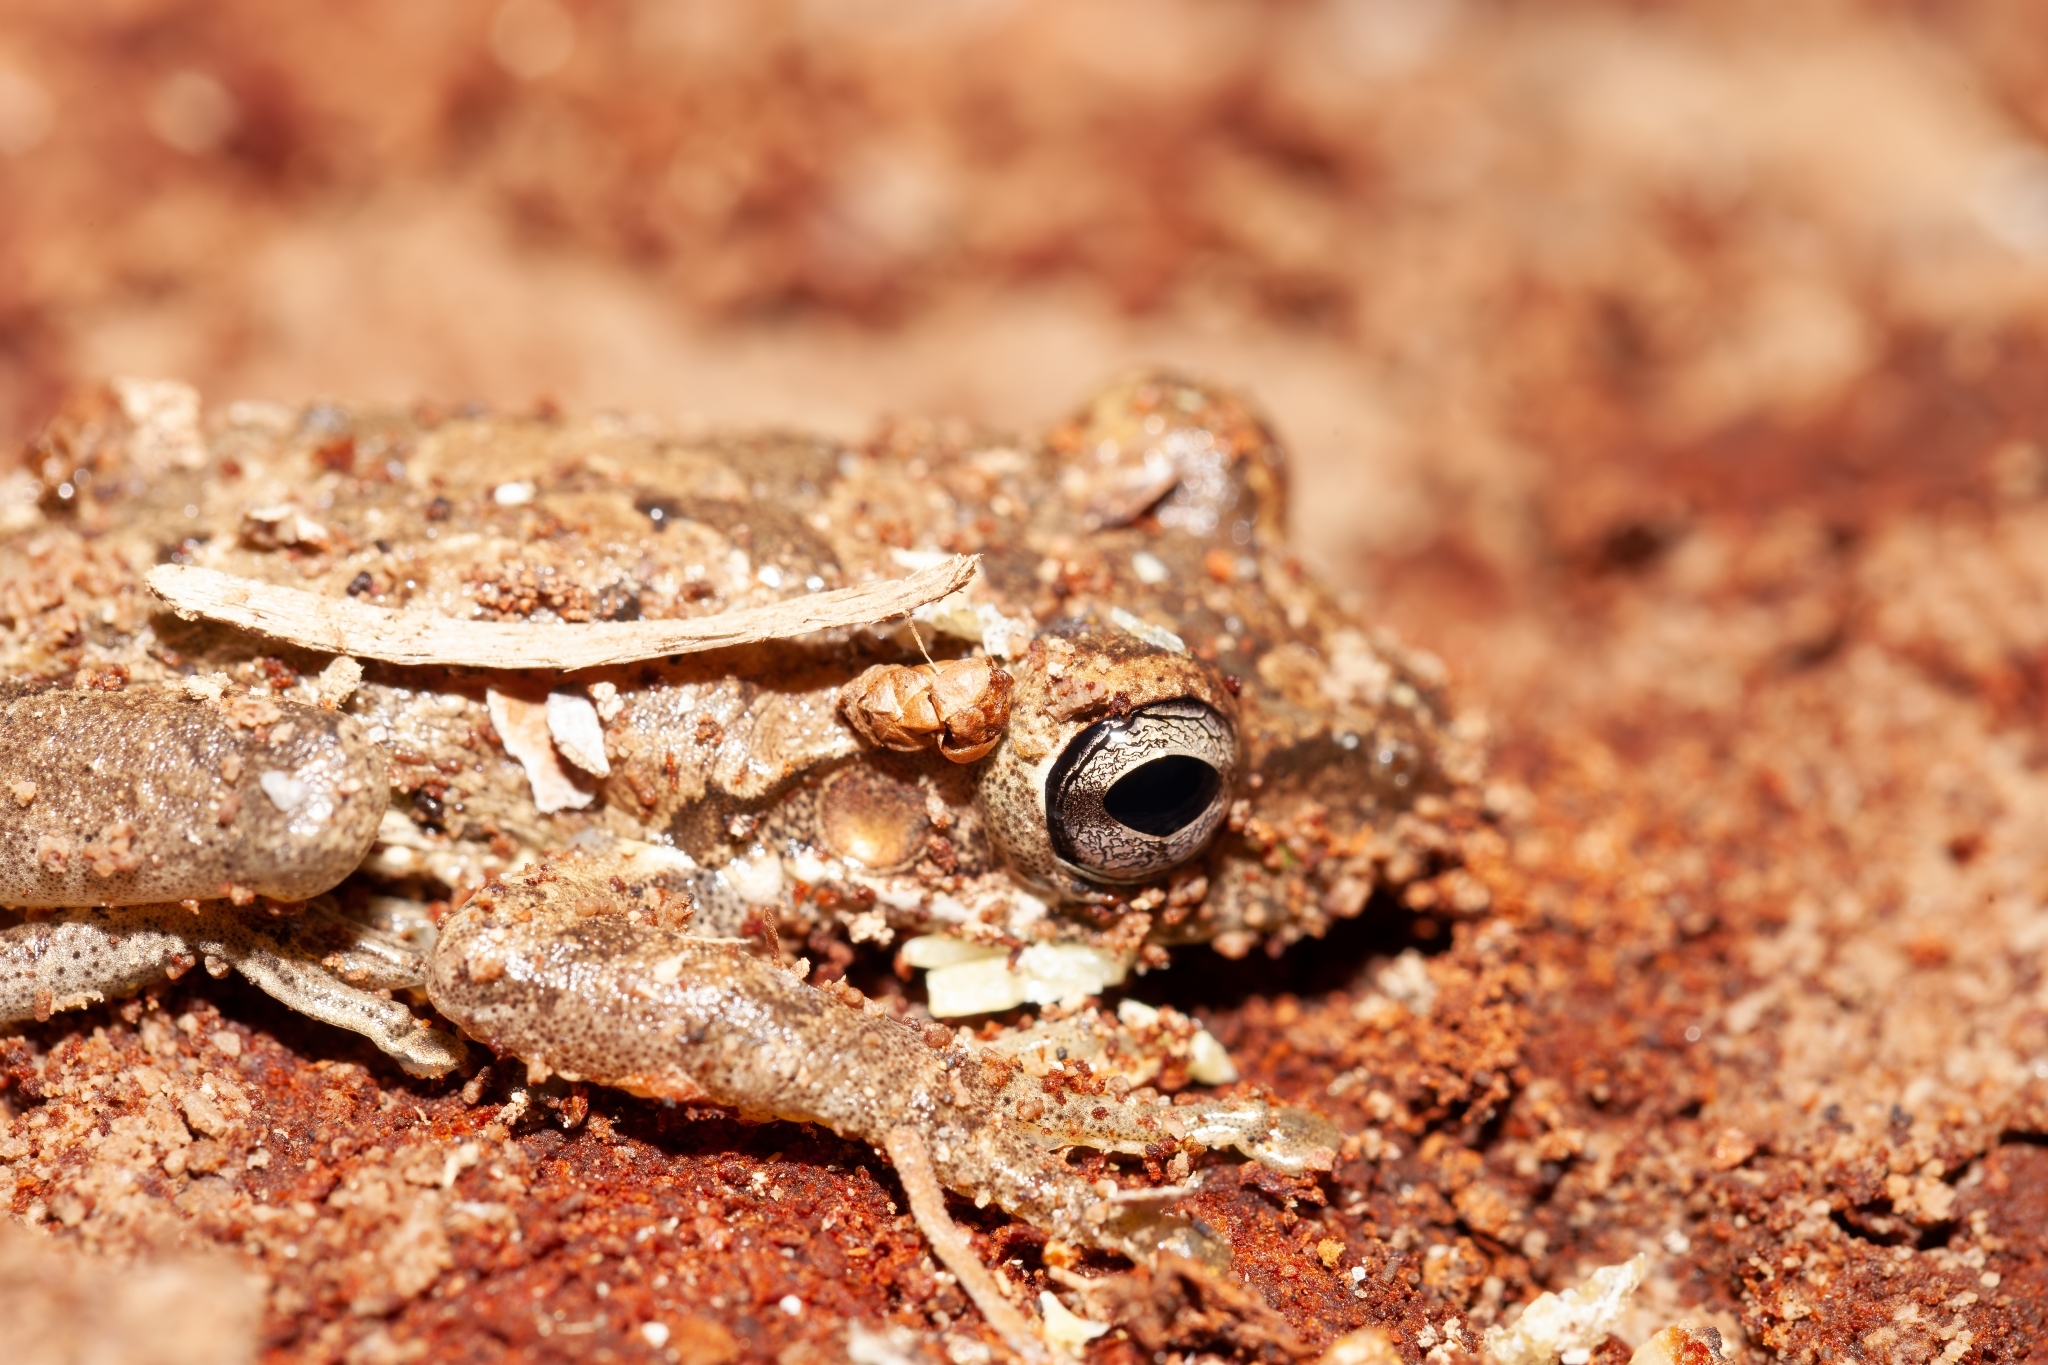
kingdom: Animalia
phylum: Chordata
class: Amphibia
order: Anura
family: Hylidae
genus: Osteopilus
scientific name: Osteopilus septentrionalis
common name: Cuban treefrog
